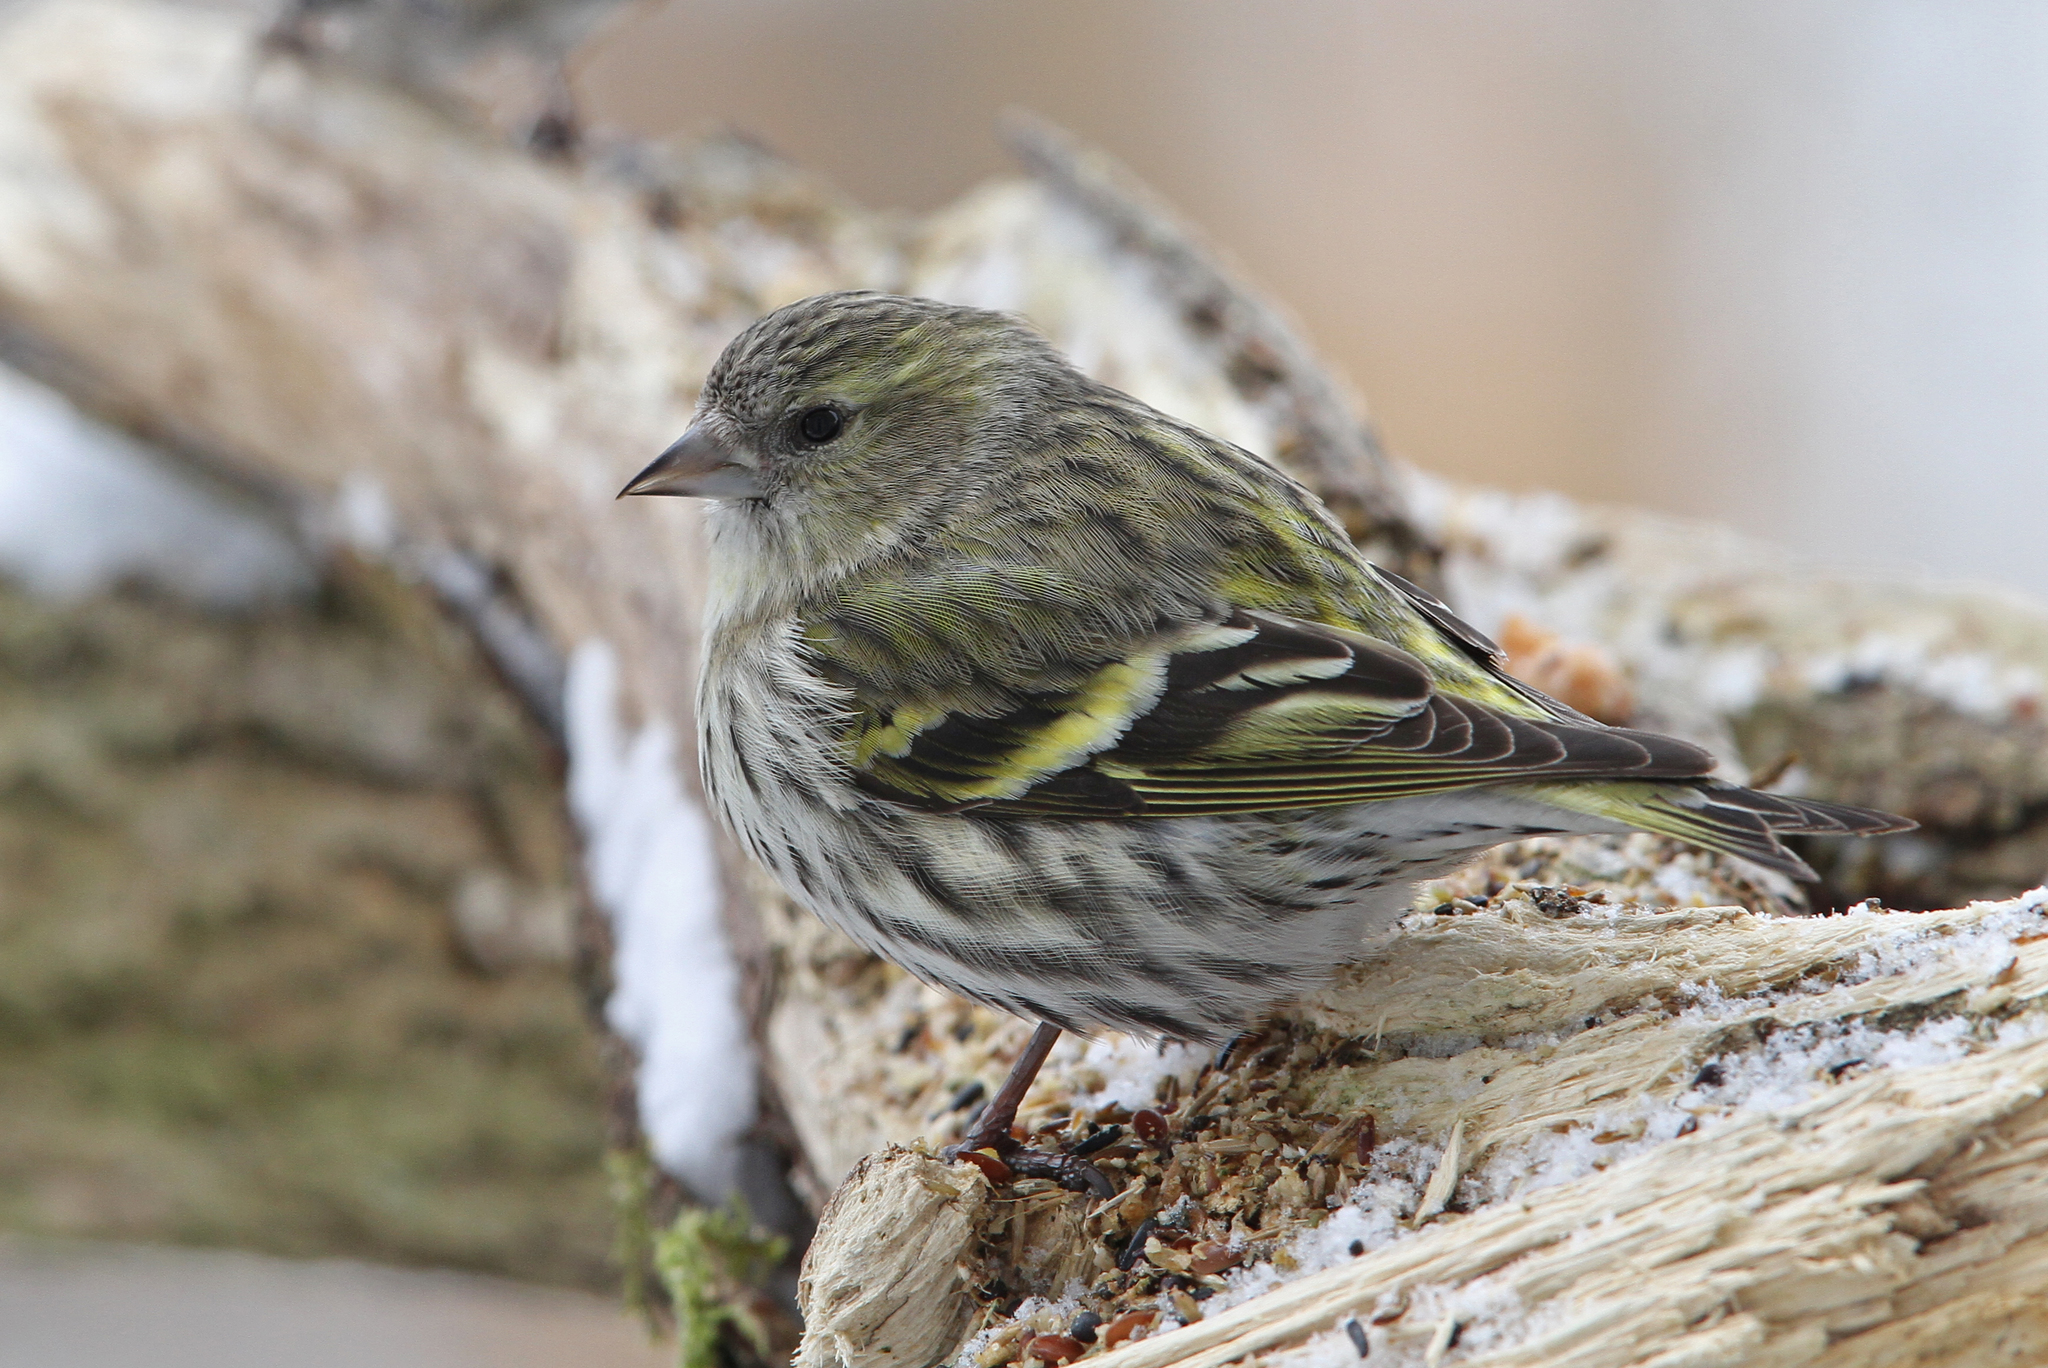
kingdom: Animalia
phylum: Chordata
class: Aves
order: Passeriformes
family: Fringillidae
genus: Spinus
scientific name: Spinus spinus
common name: Eurasian siskin
